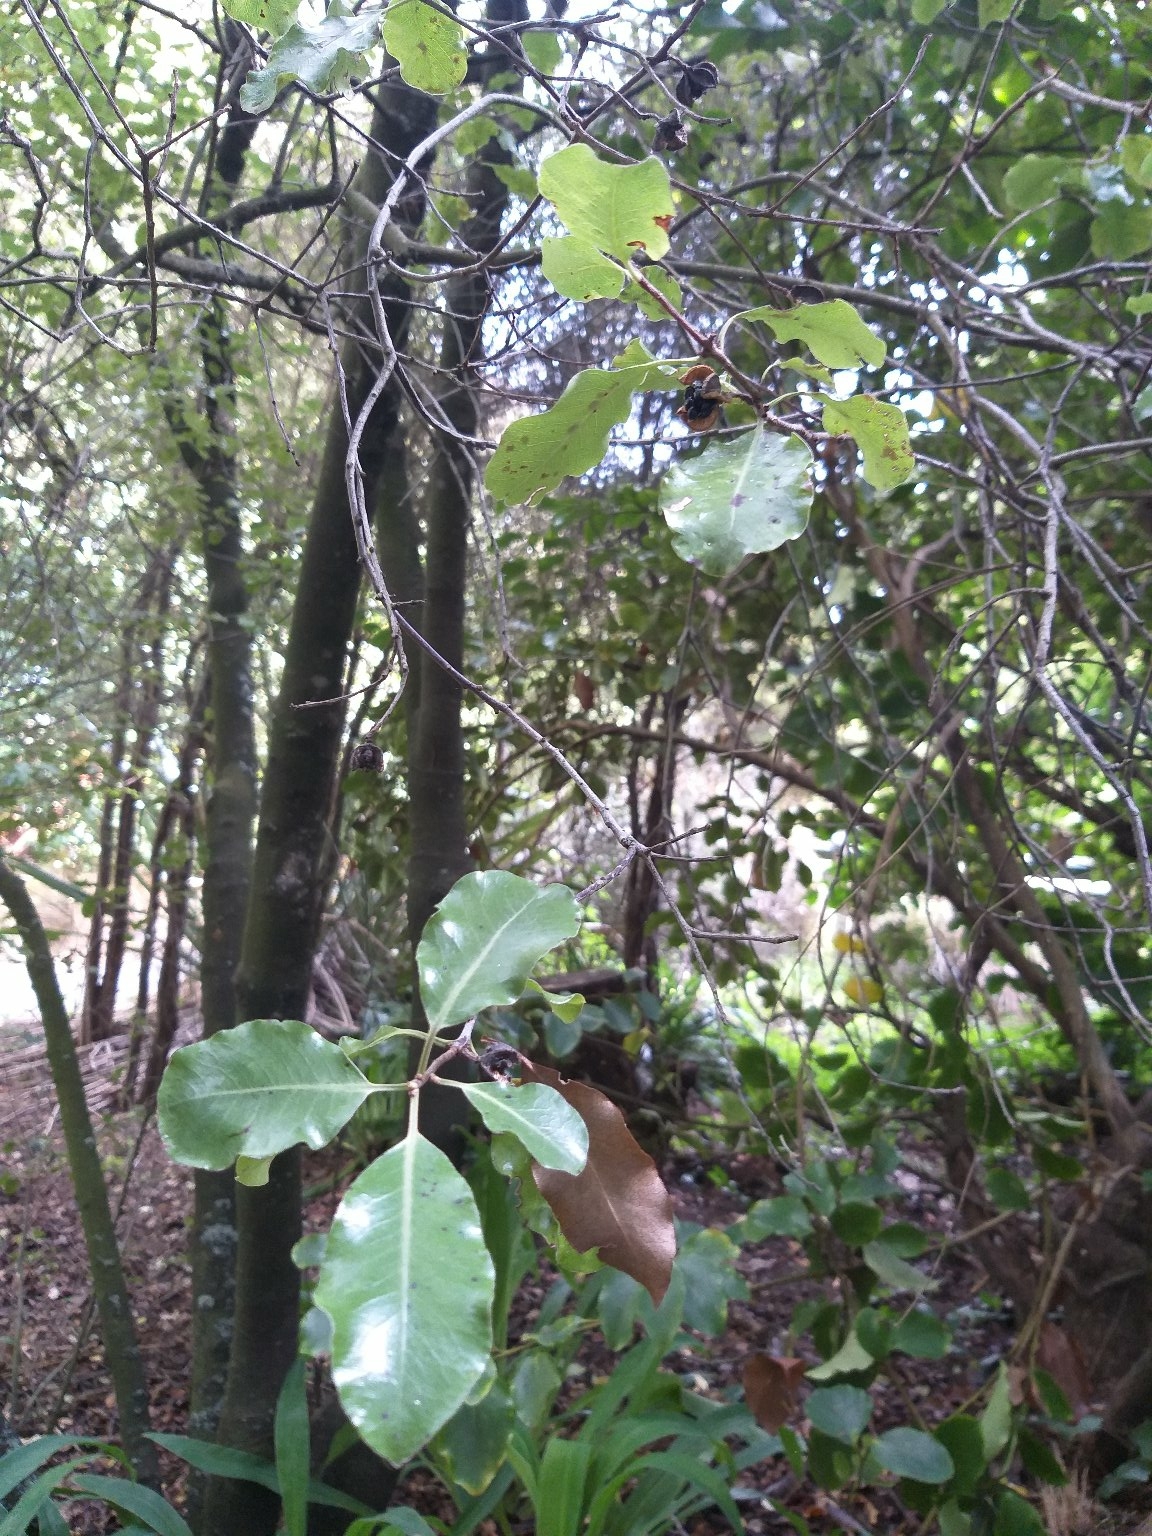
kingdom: Plantae
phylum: Tracheophyta
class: Magnoliopsida
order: Apiales
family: Pittosporaceae
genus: Pittosporum
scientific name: Pittosporum tenuifolium
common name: Kohuhu
